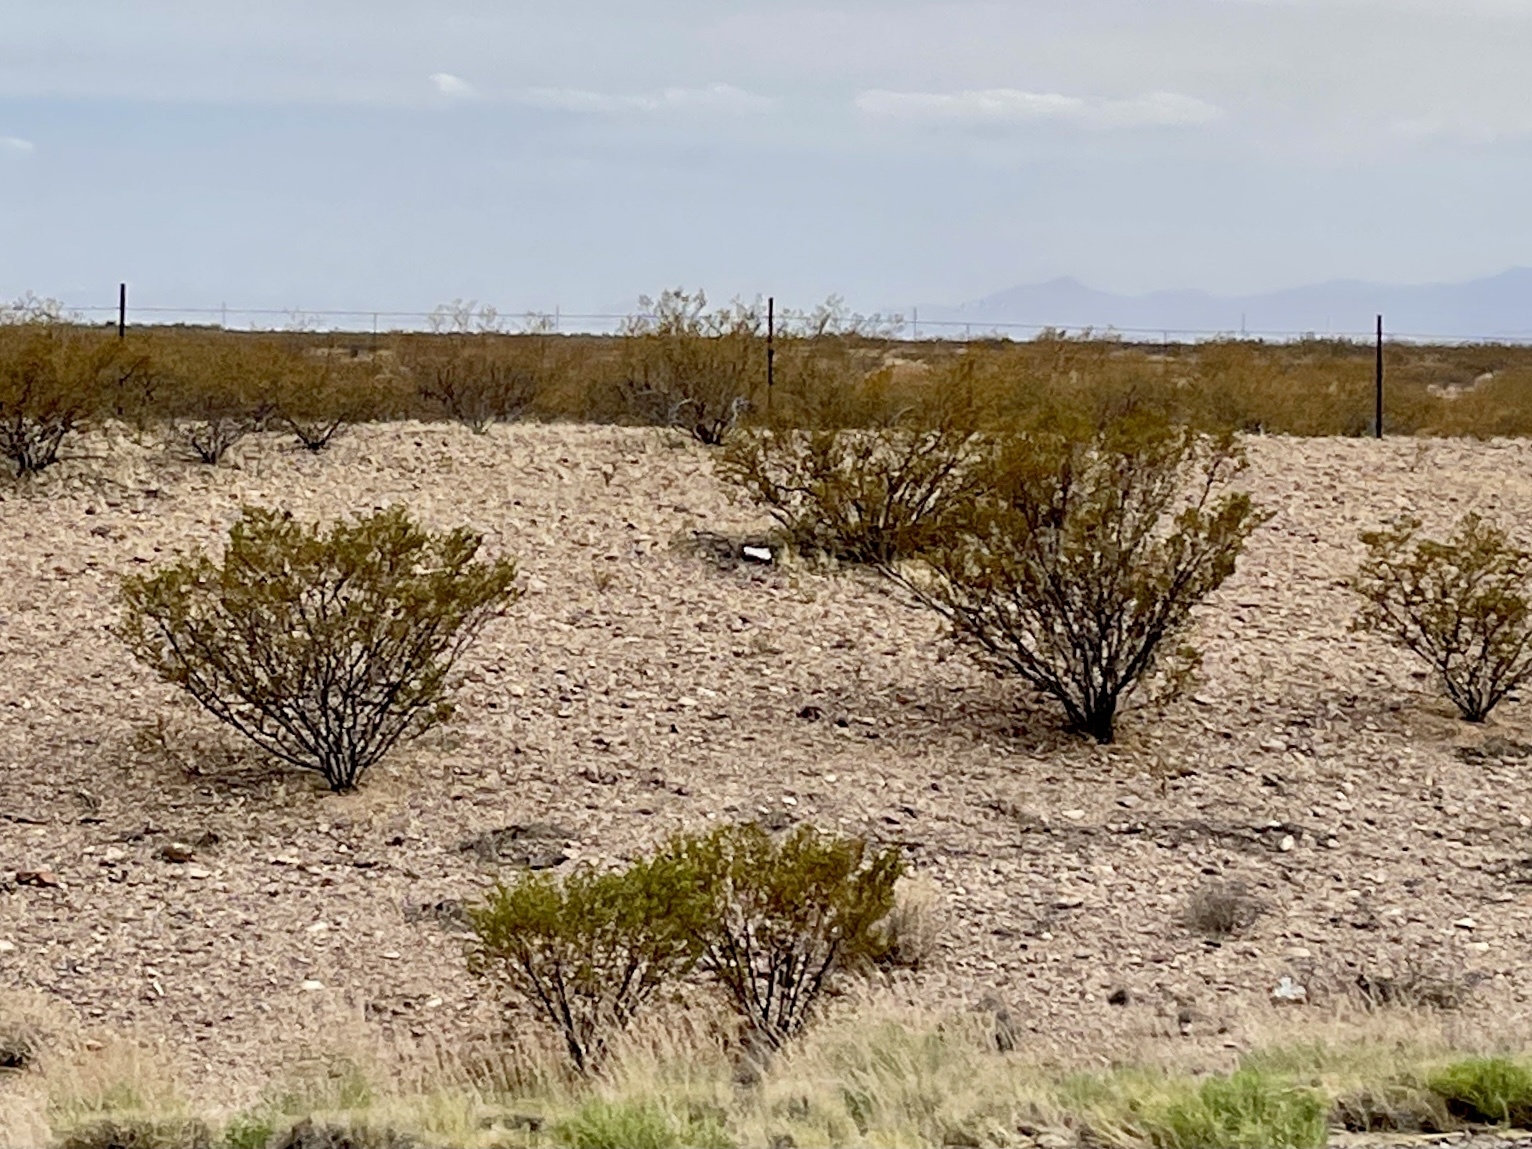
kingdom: Plantae
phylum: Tracheophyta
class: Magnoliopsida
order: Zygophyllales
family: Zygophyllaceae
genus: Larrea
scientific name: Larrea tridentata
